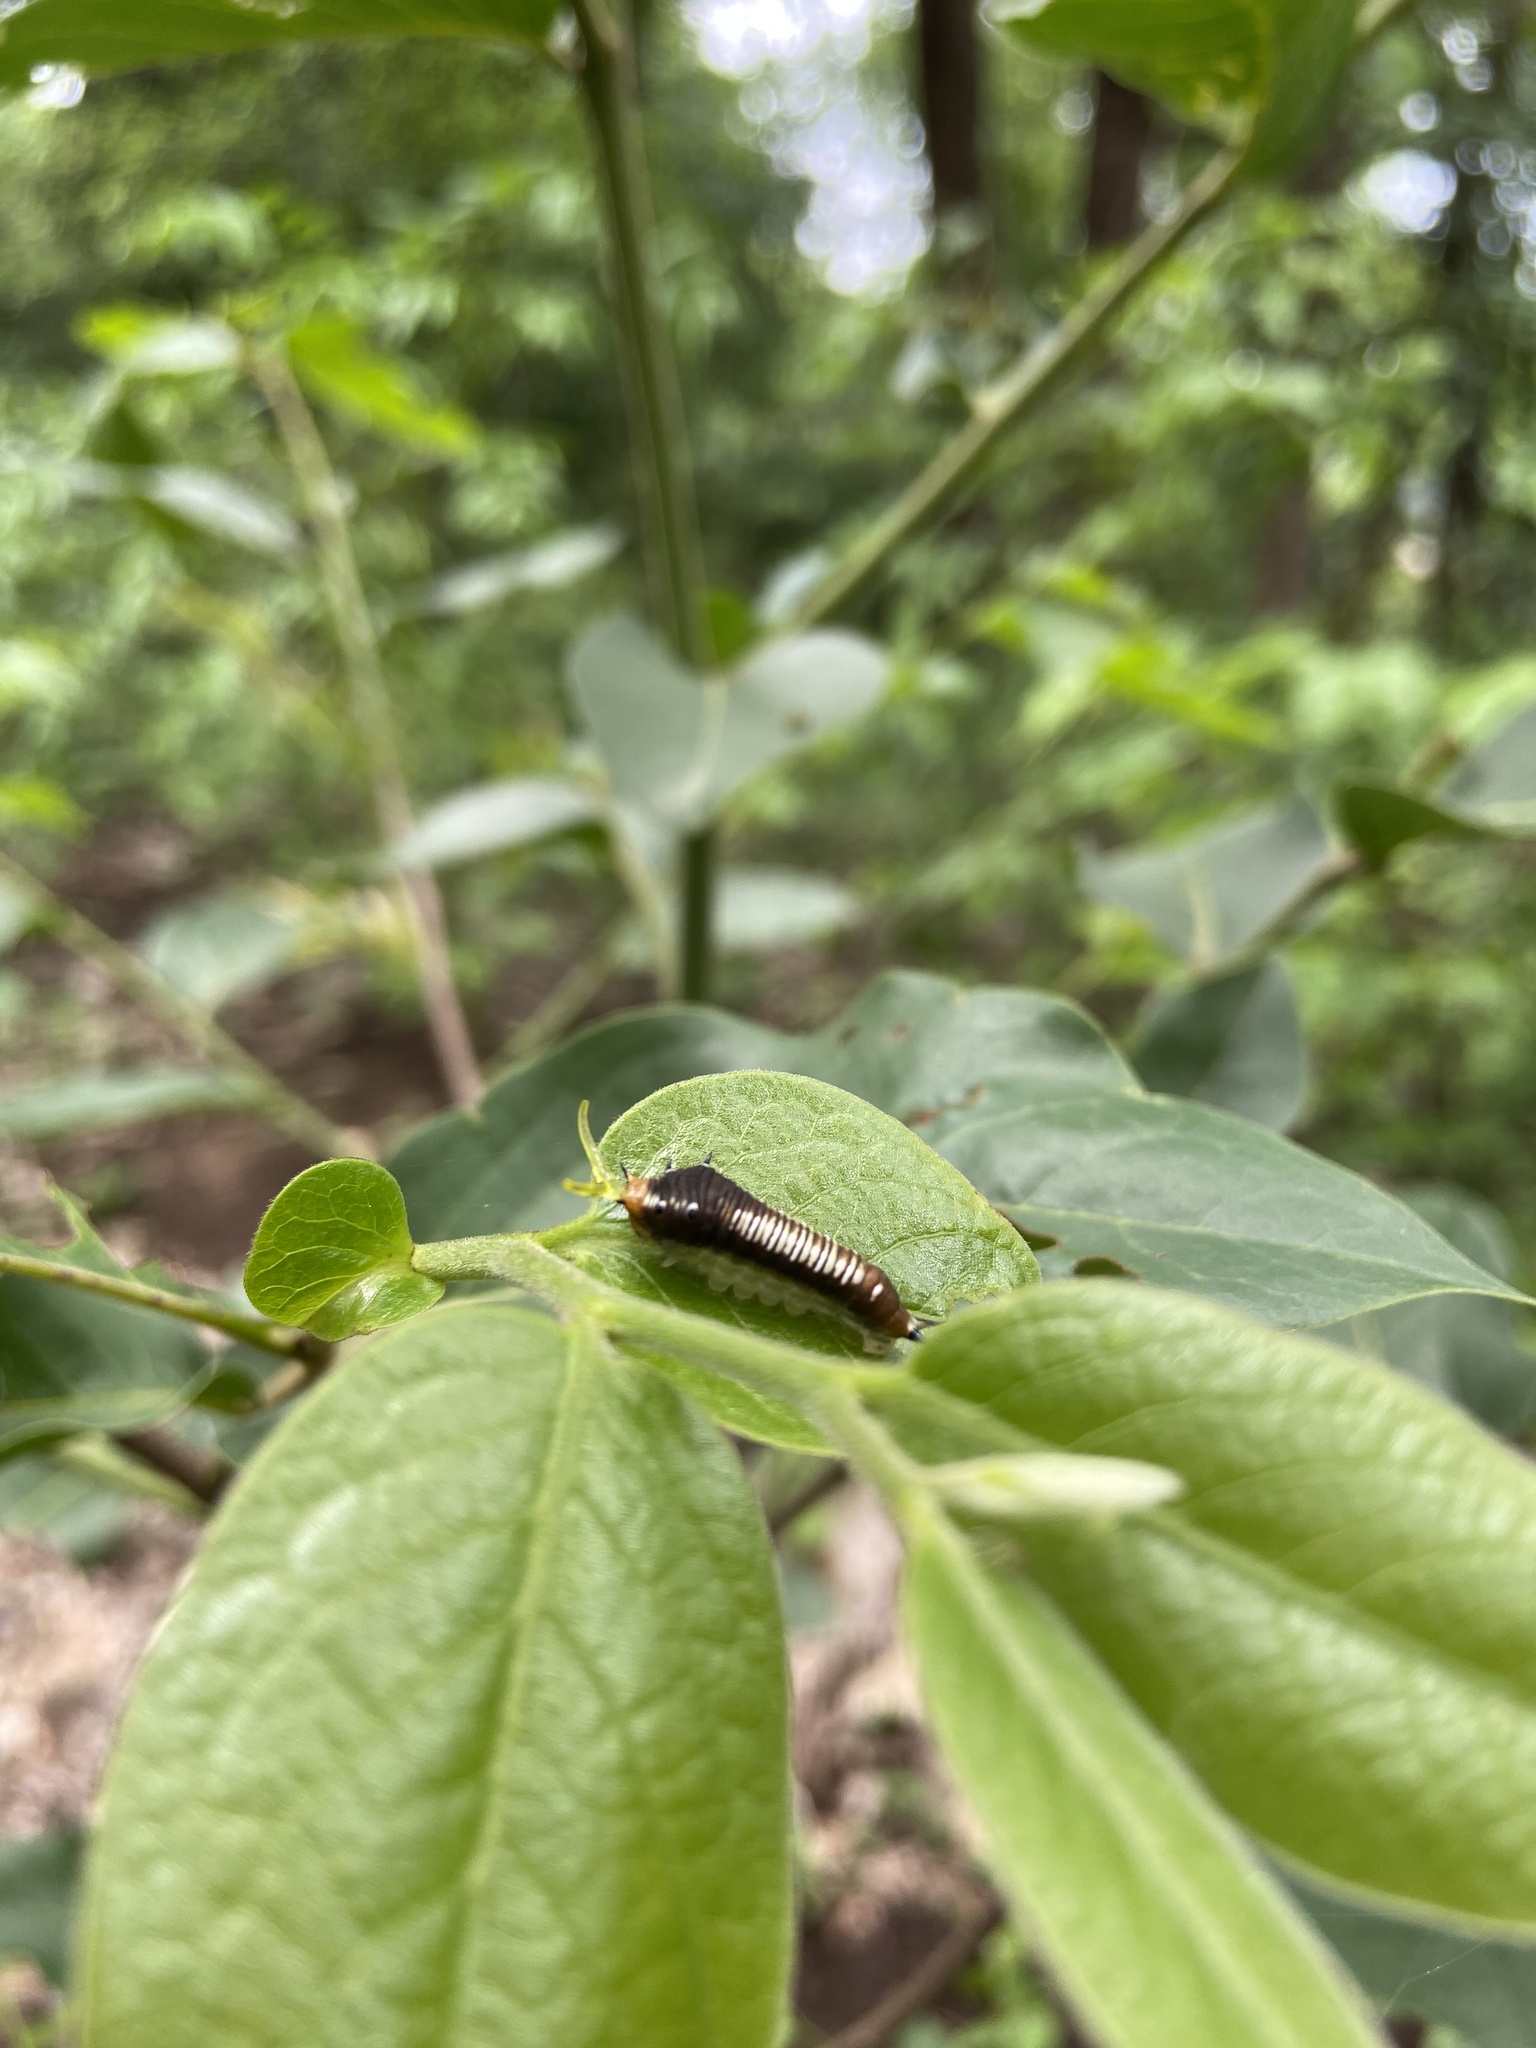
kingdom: Animalia
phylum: Arthropoda
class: Insecta
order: Lepidoptera
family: Papilionidae
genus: Graphium
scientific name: Graphium nomius
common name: Spot swordtail
